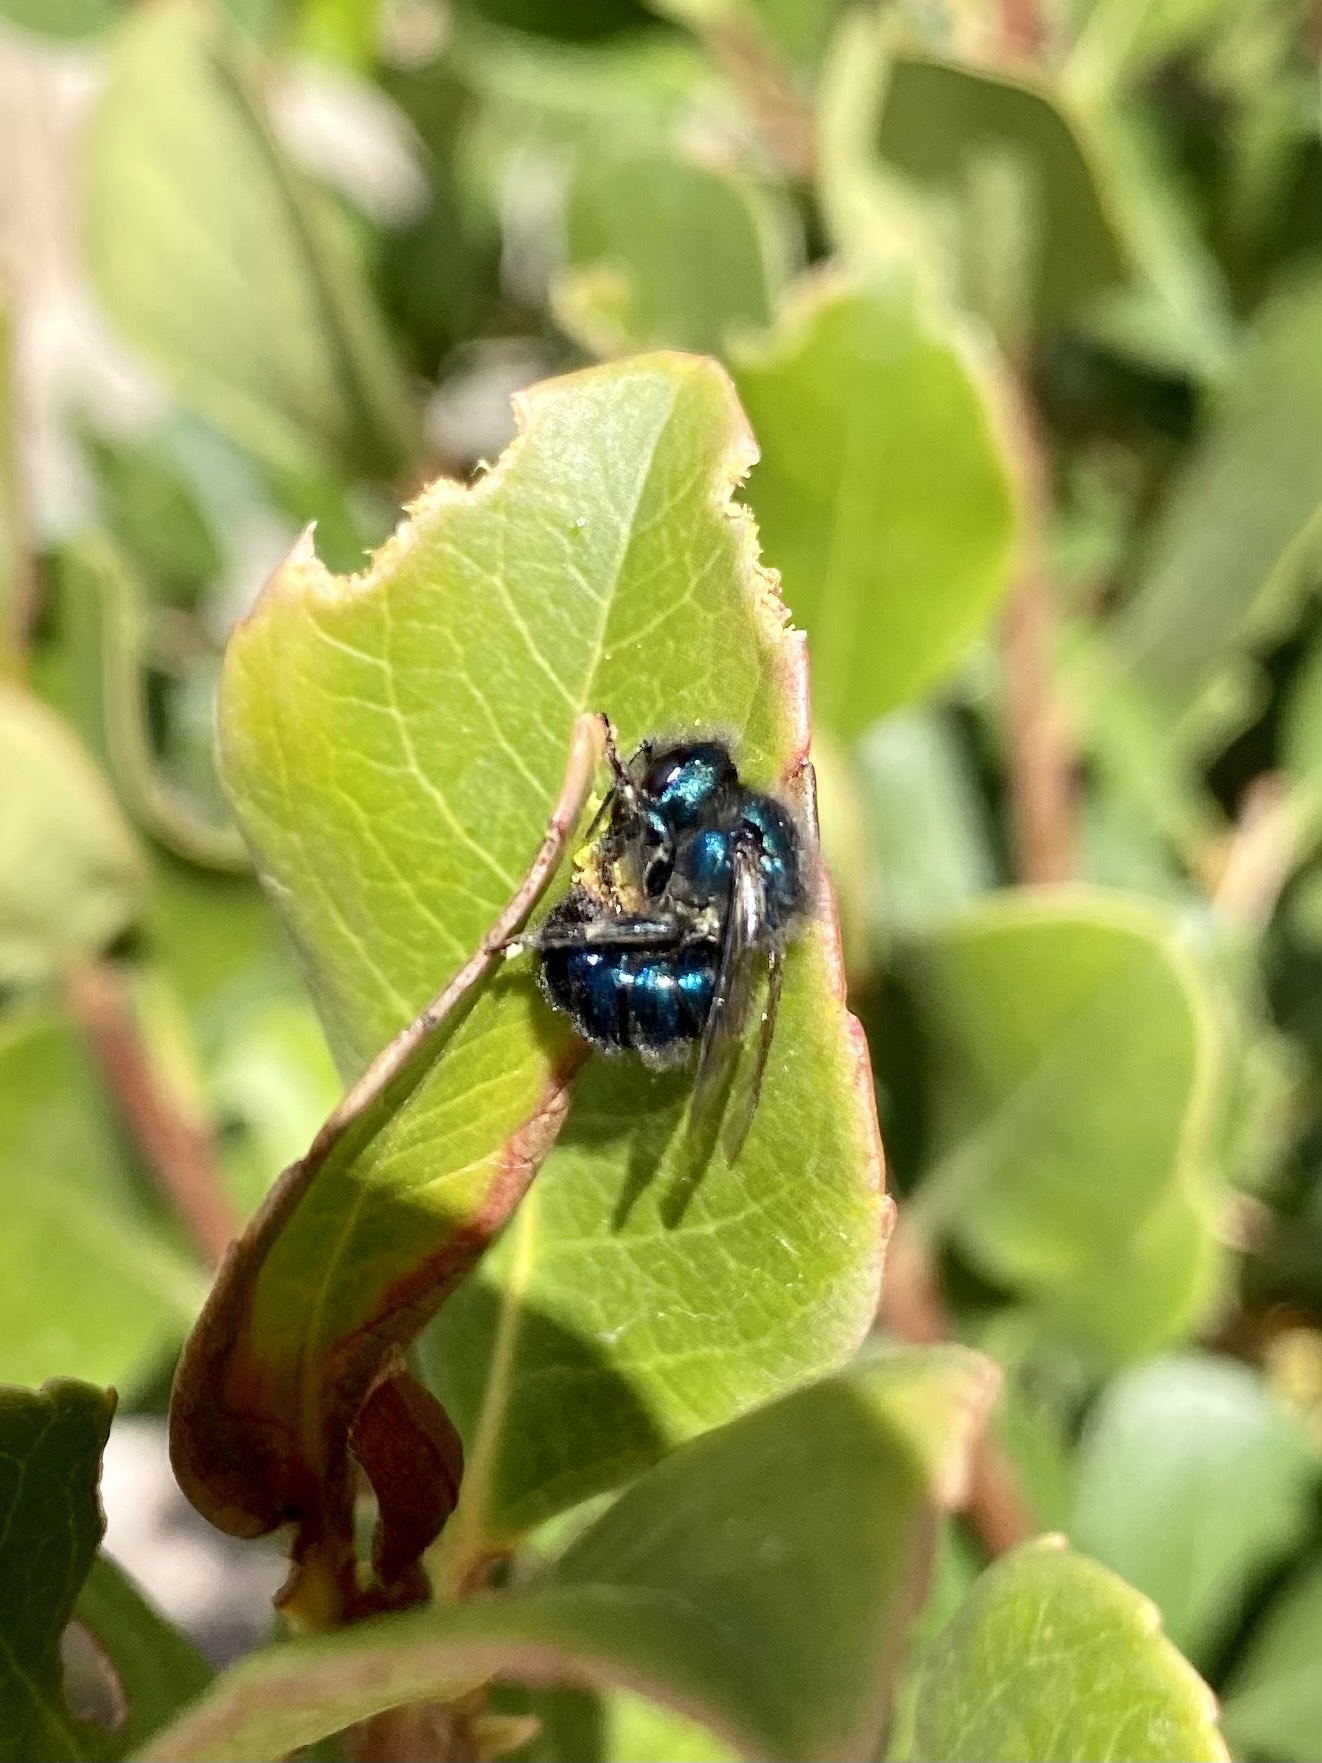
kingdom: Animalia
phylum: Arthropoda
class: Insecta
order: Hymenoptera
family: Megachilidae
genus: Osmia
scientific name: Osmia ribifloris
